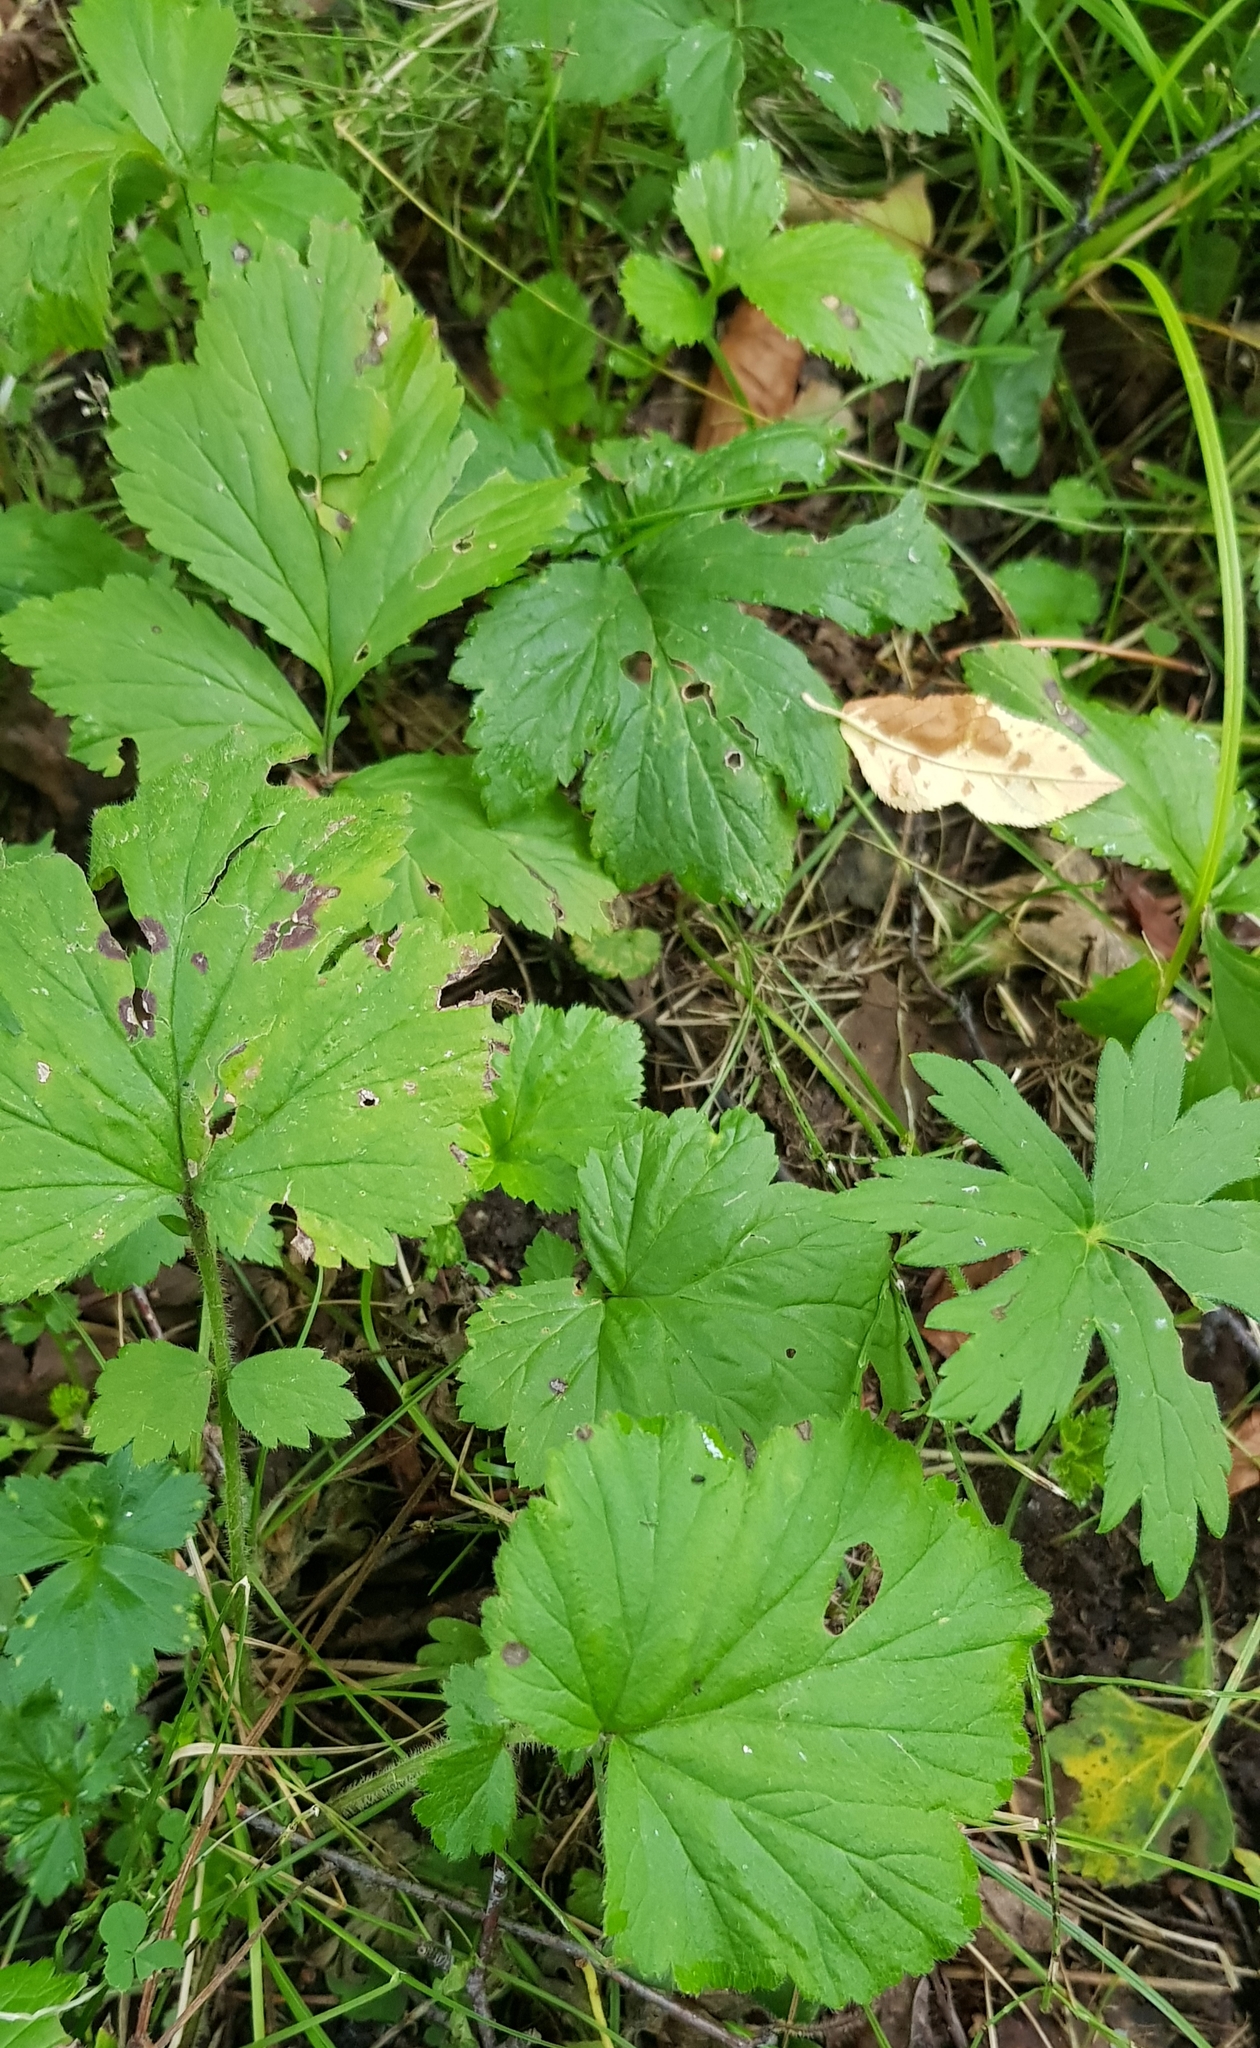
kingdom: Plantae
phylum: Tracheophyta
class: Magnoliopsida
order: Rosales
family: Rosaceae
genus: Geum
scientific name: Geum rivale
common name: Water avens
